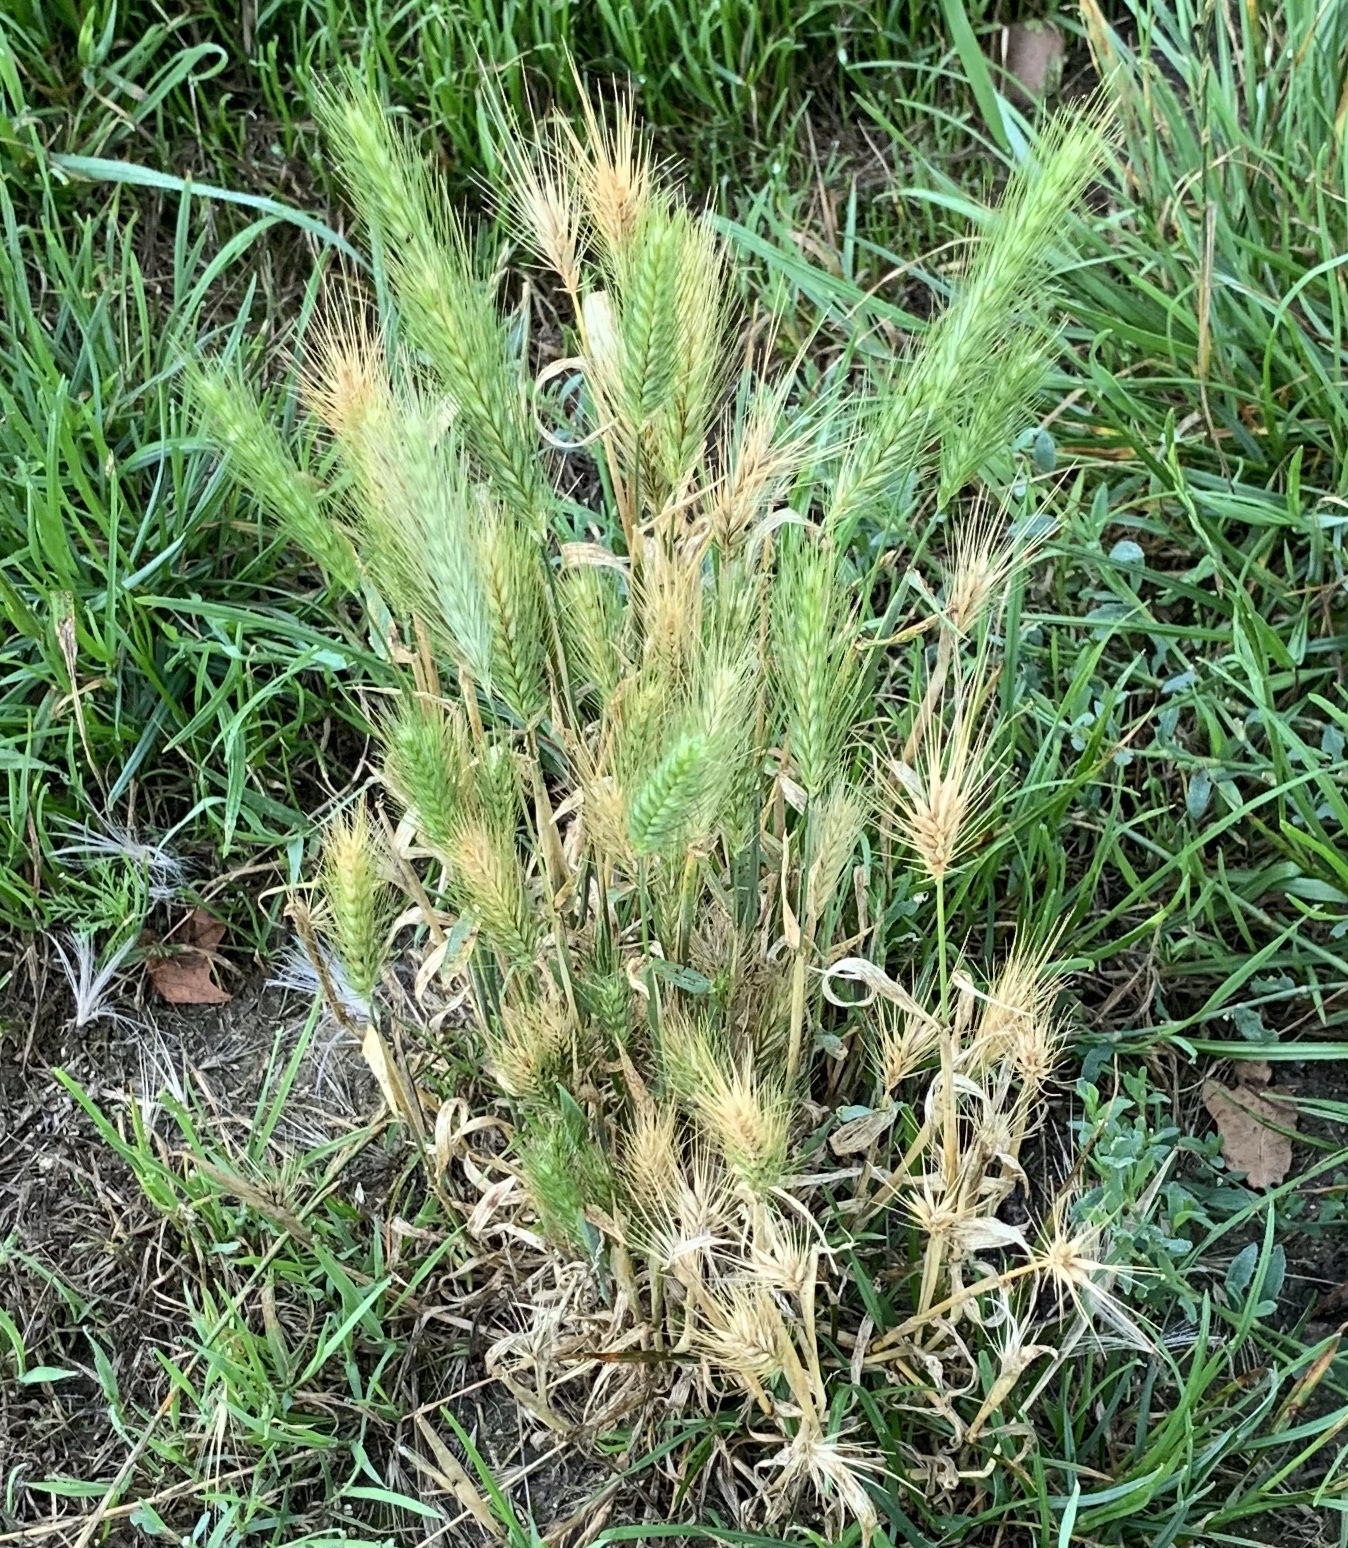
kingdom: Plantae
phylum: Tracheophyta
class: Liliopsida
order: Poales
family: Poaceae
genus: Hordeum
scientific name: Hordeum murinum
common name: Wall barley
